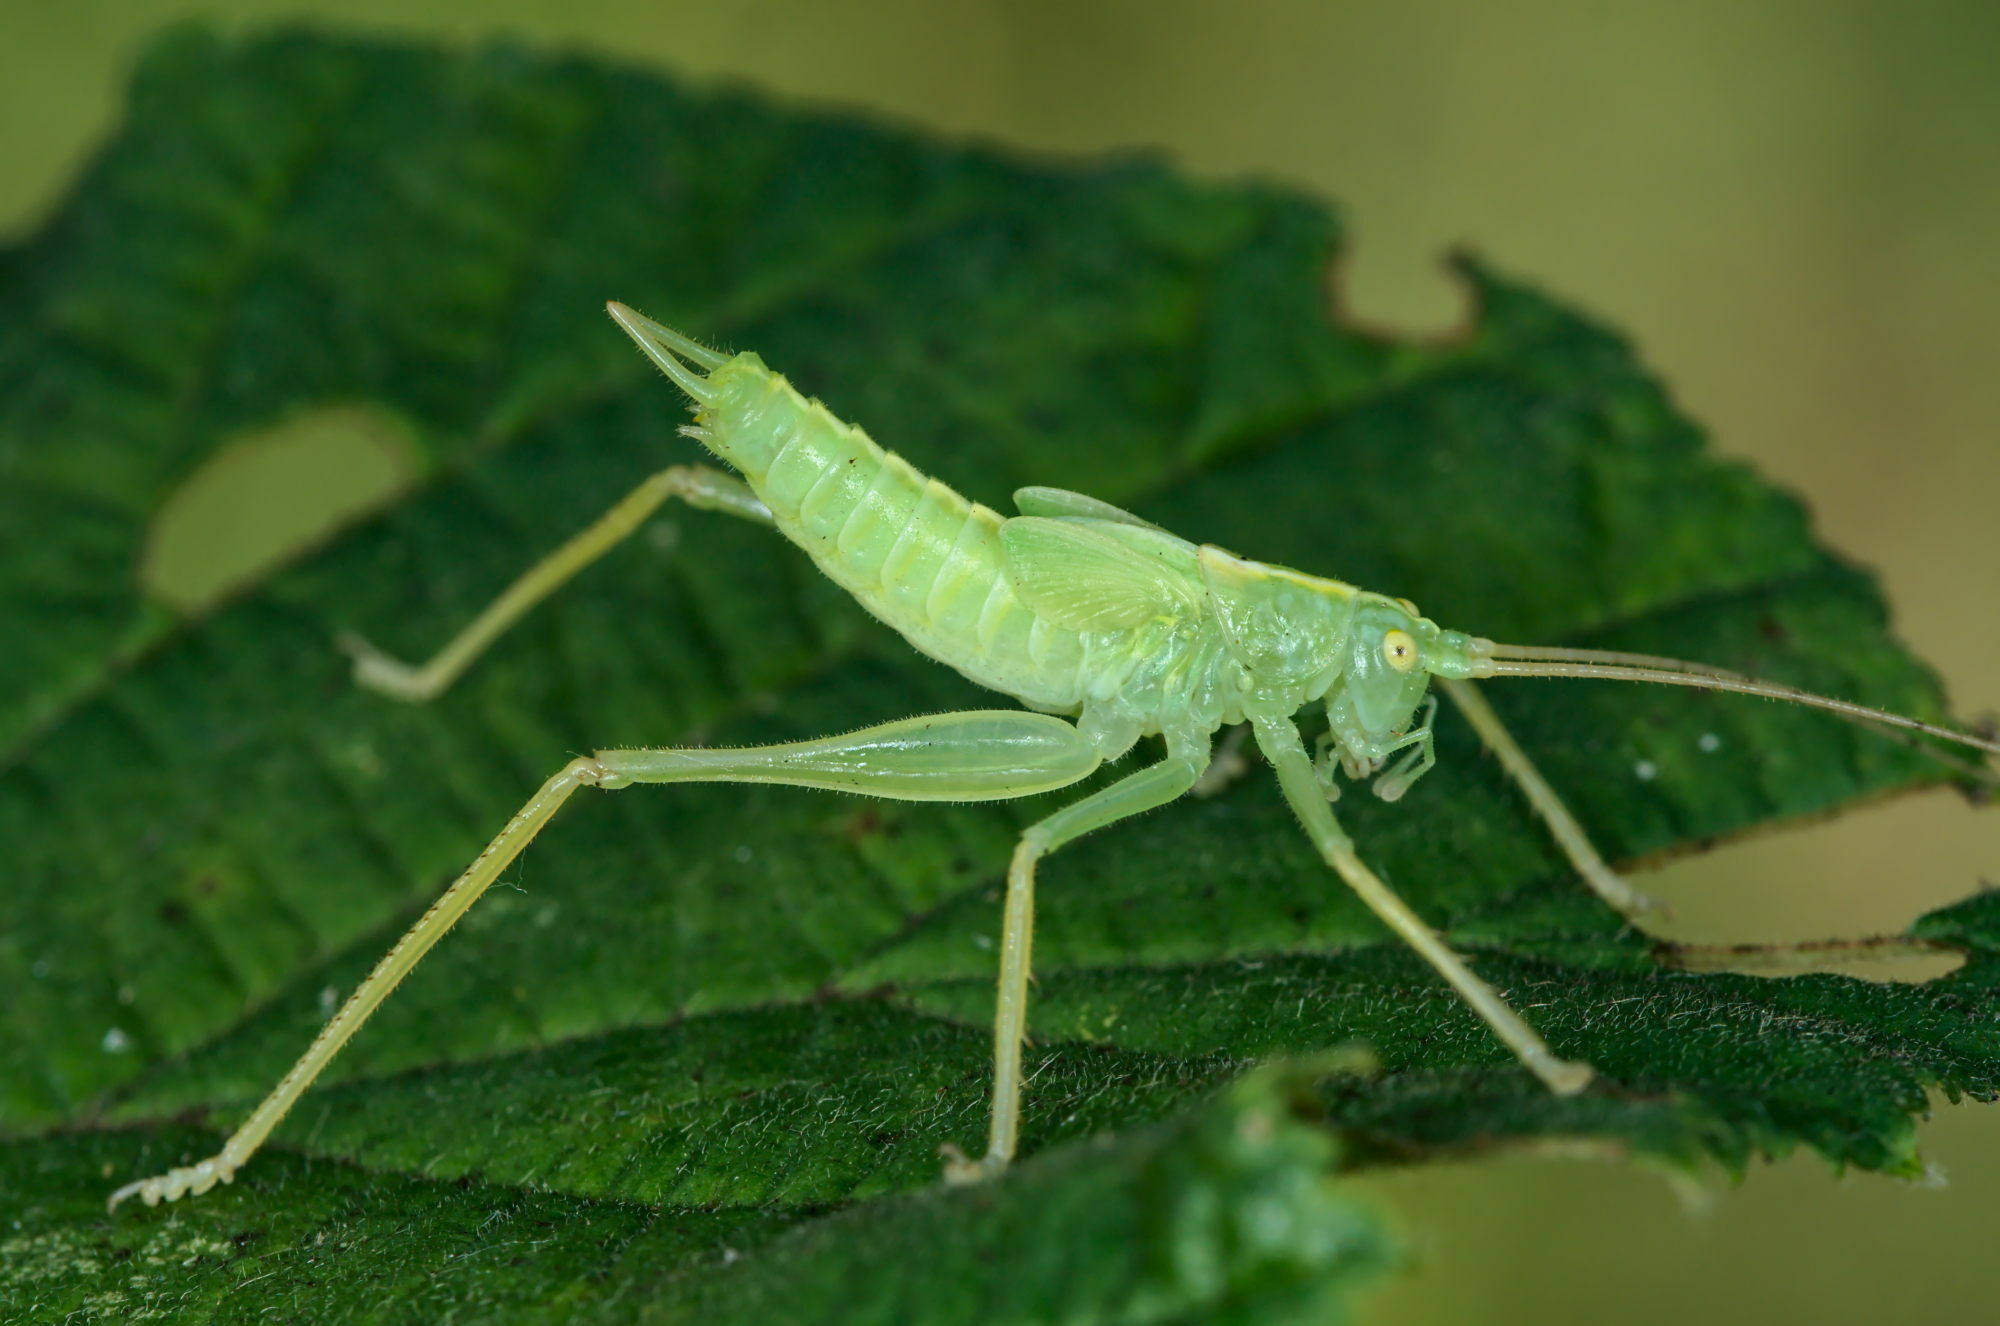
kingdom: Animalia
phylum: Arthropoda
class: Insecta
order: Orthoptera
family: Tettigoniidae
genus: Meconema
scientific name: Meconema thalassinum
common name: Oak bush-cricket
